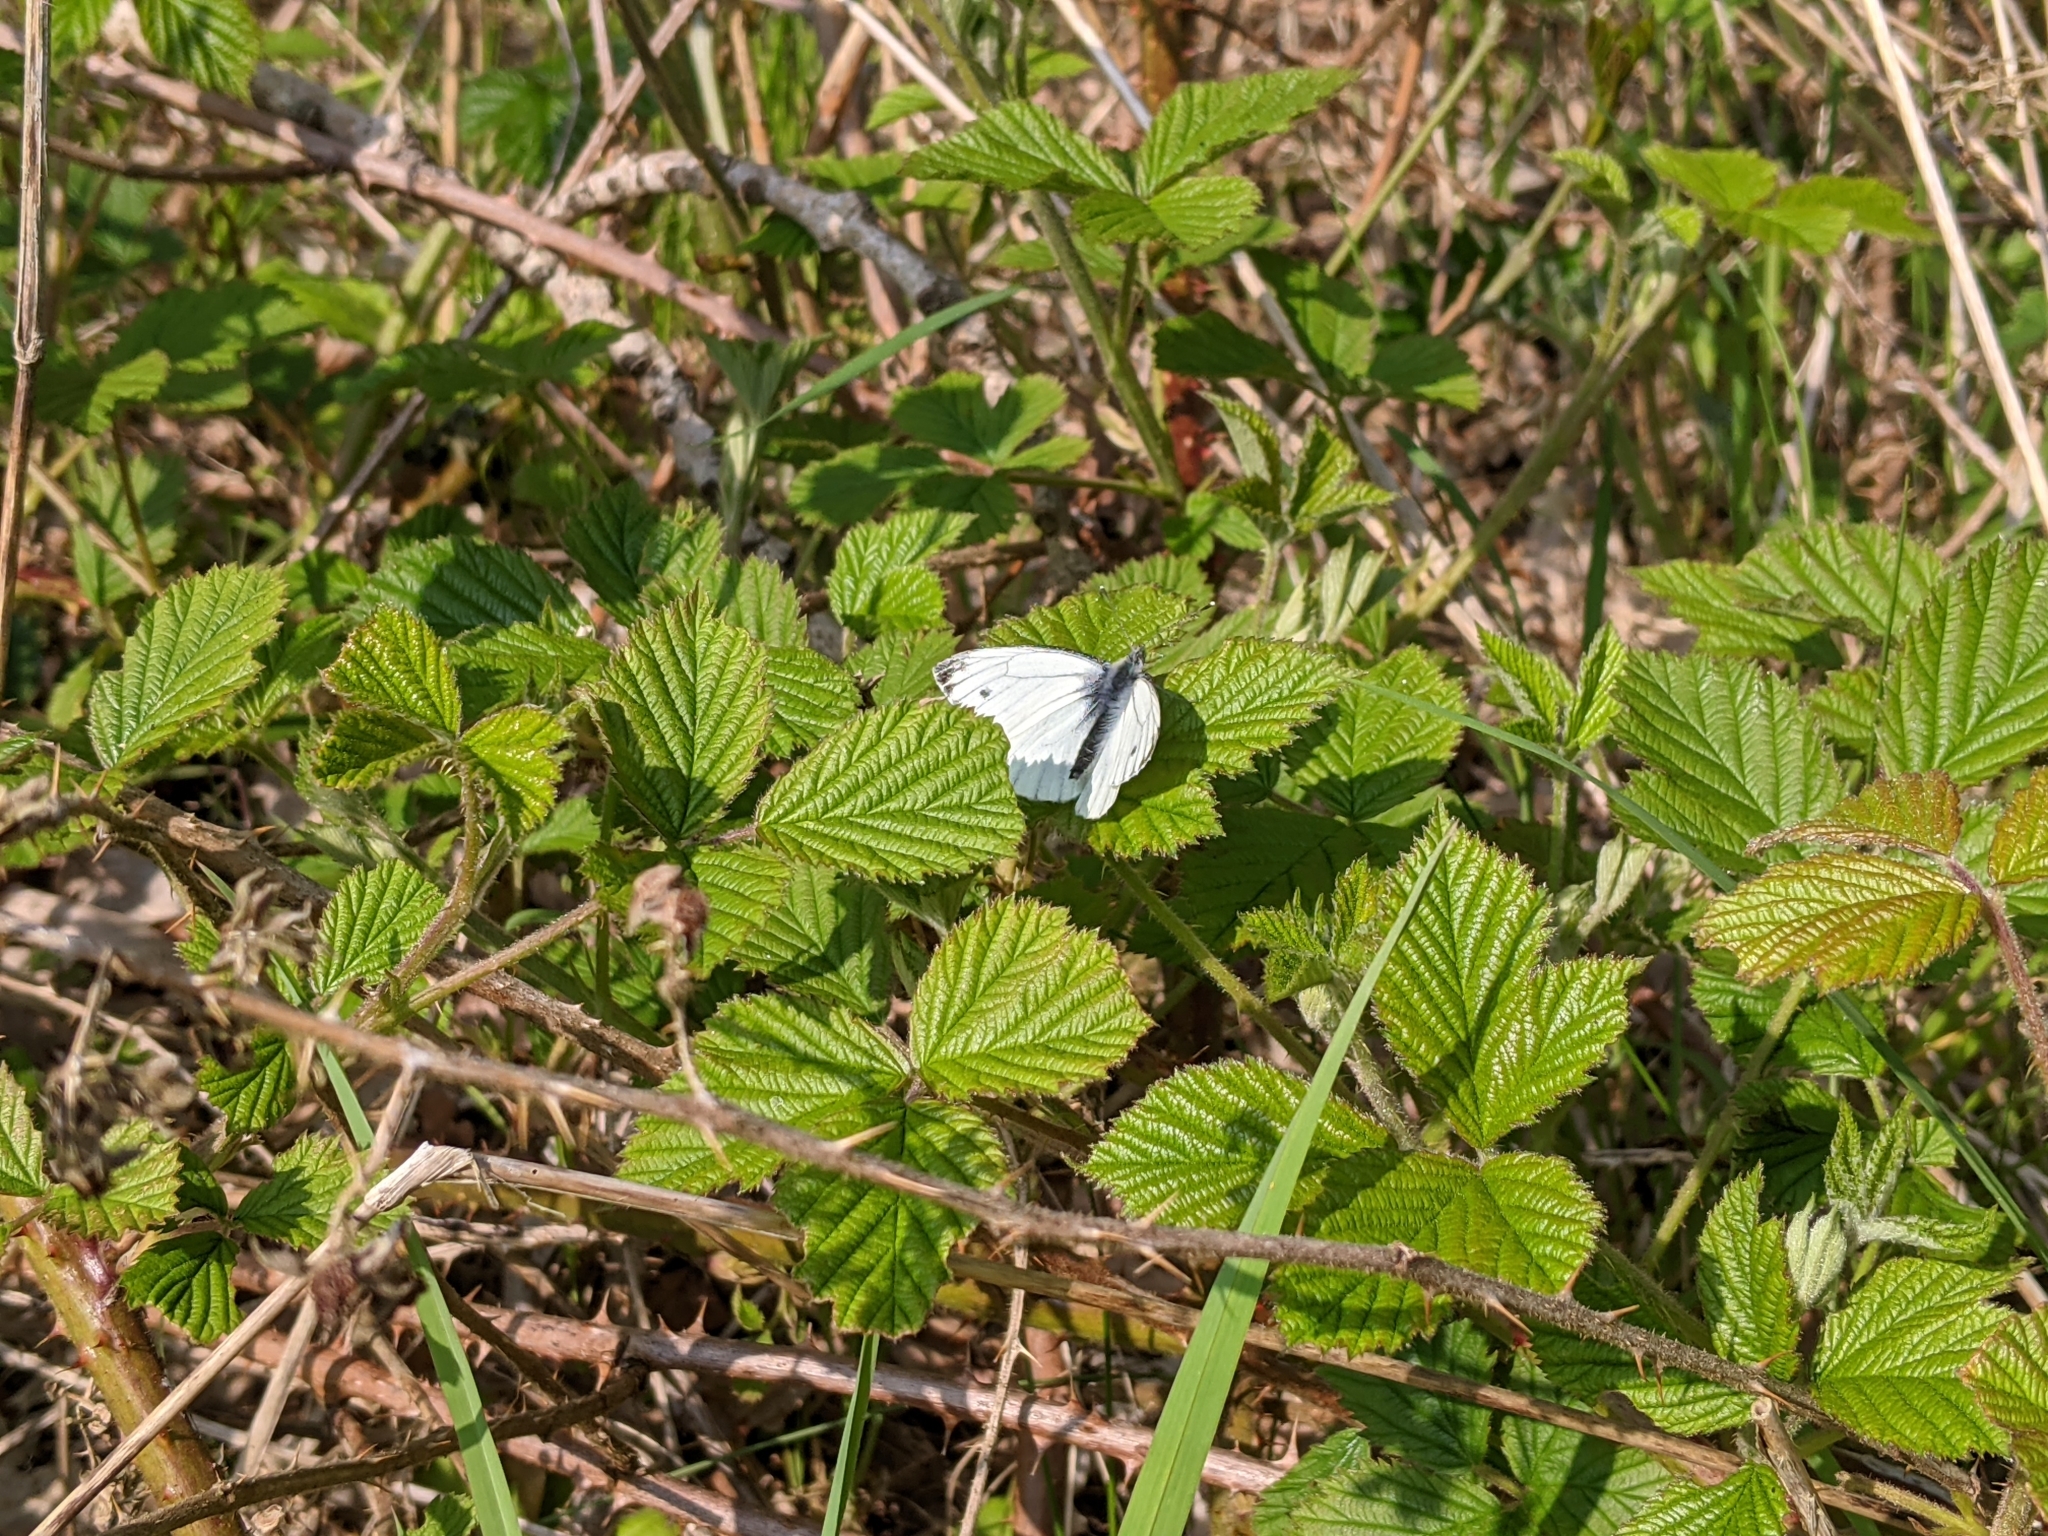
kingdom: Animalia
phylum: Arthropoda
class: Insecta
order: Lepidoptera
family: Pieridae
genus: Pieris
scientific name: Pieris napi
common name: Green-veined white
